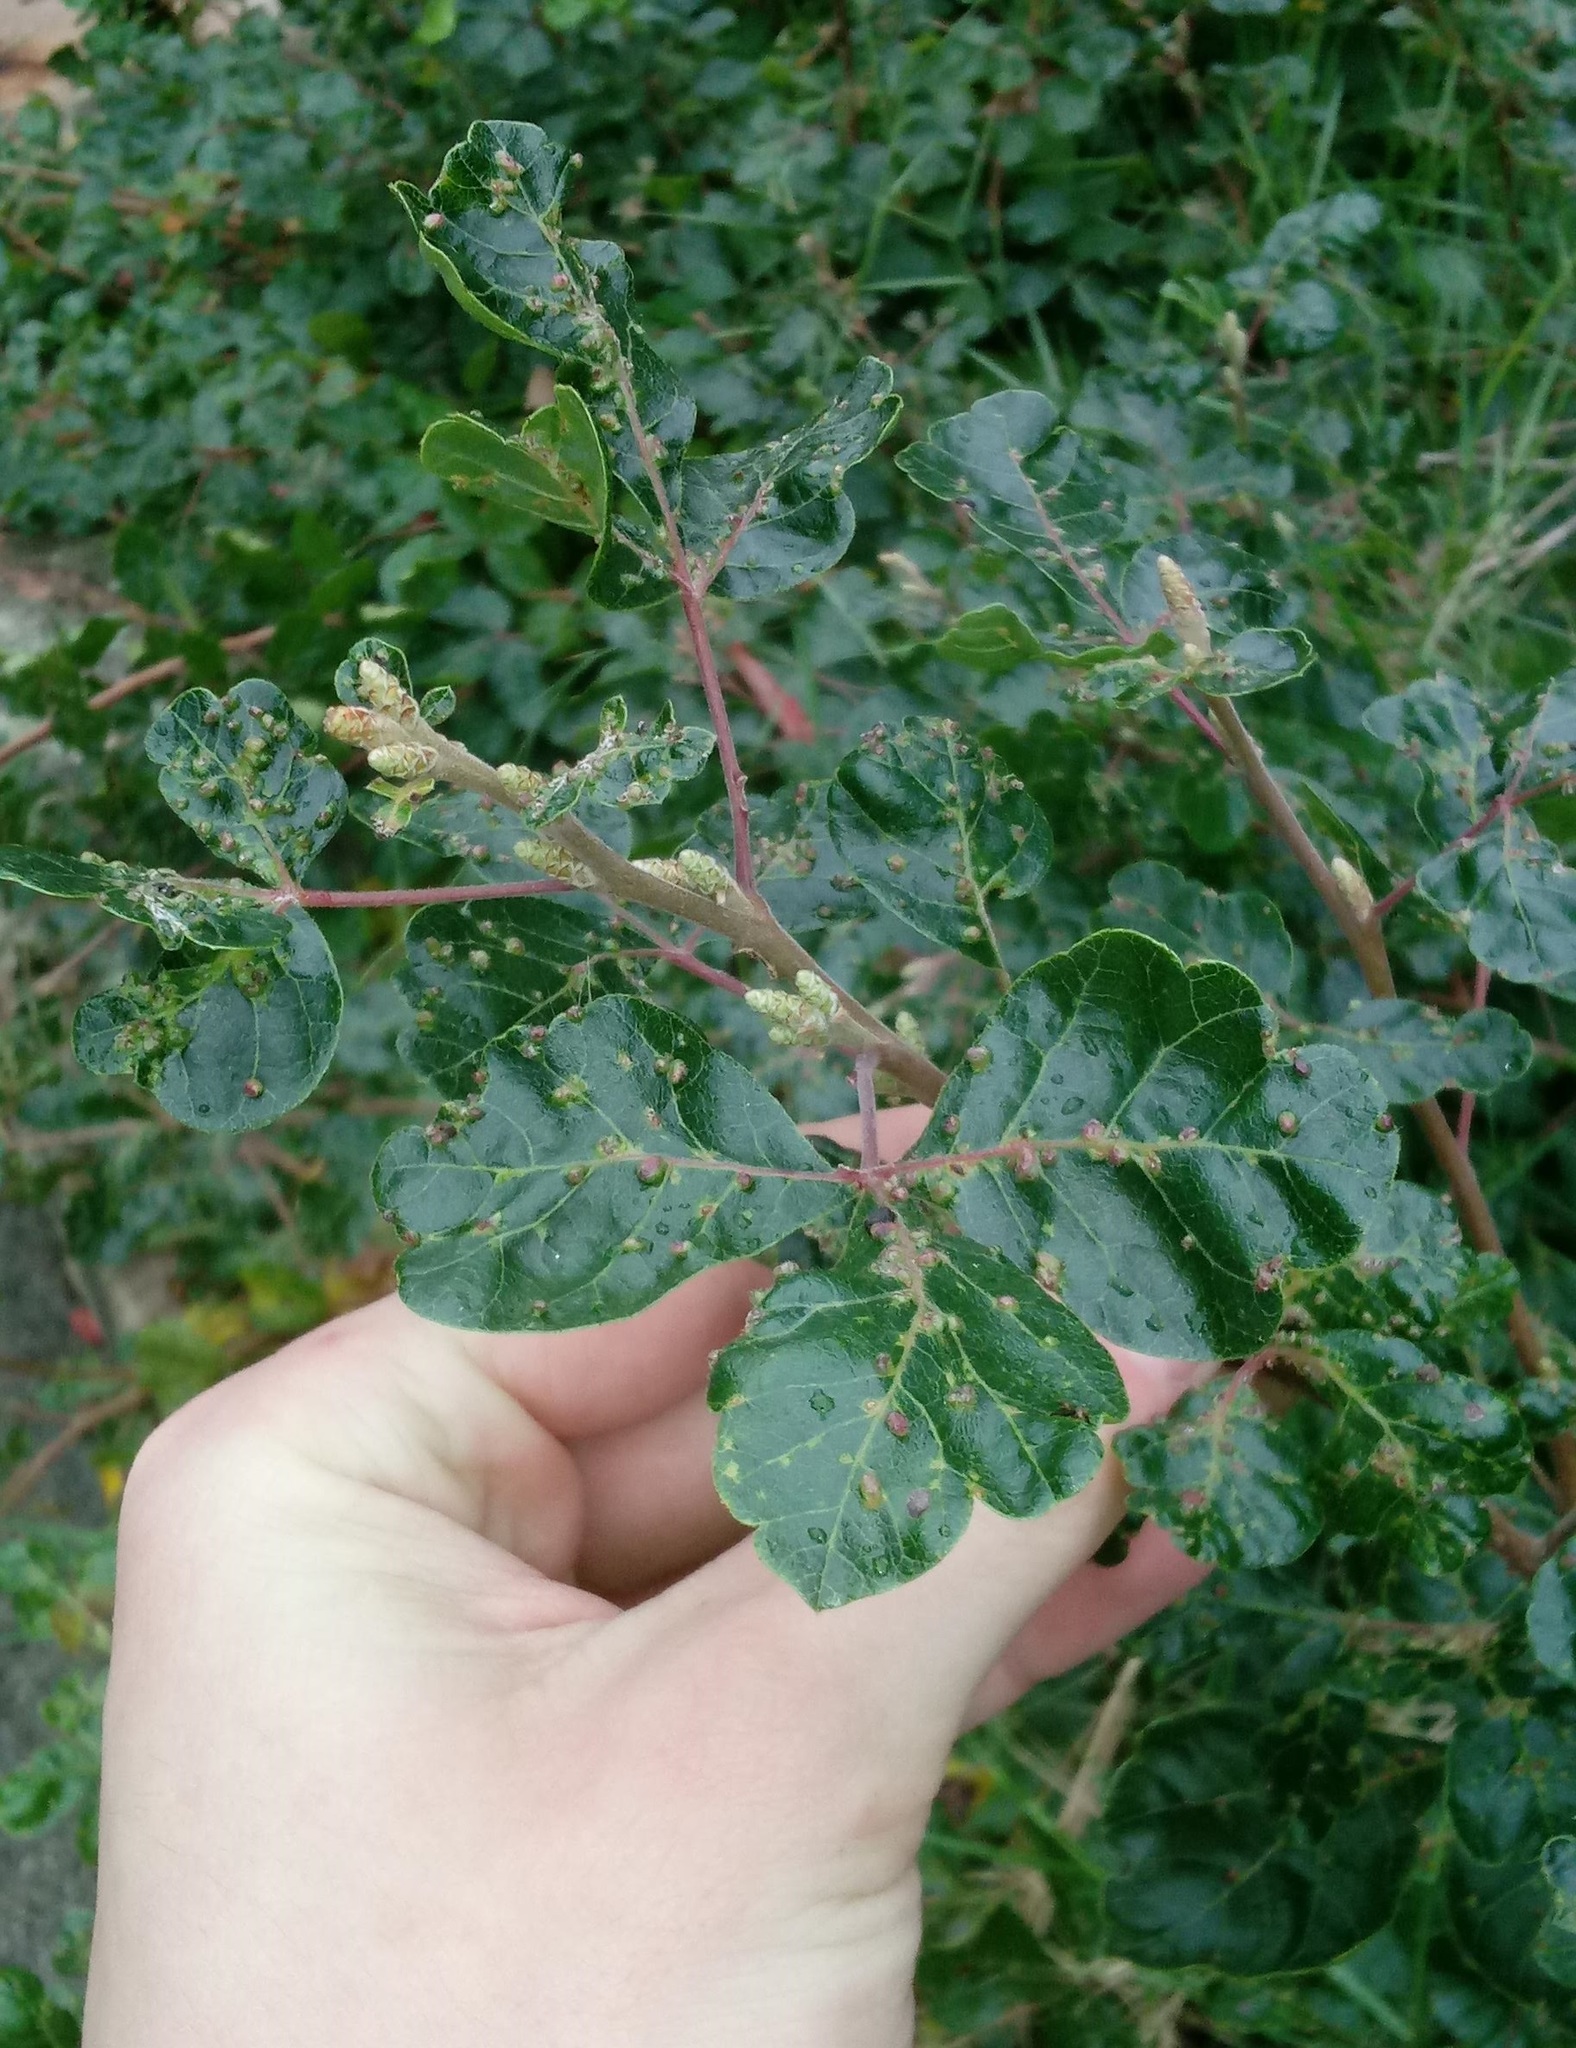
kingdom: Animalia
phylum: Arthropoda
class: Arachnida
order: Trombidiformes
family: Eriophyidae
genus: Aculops
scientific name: Aculops
